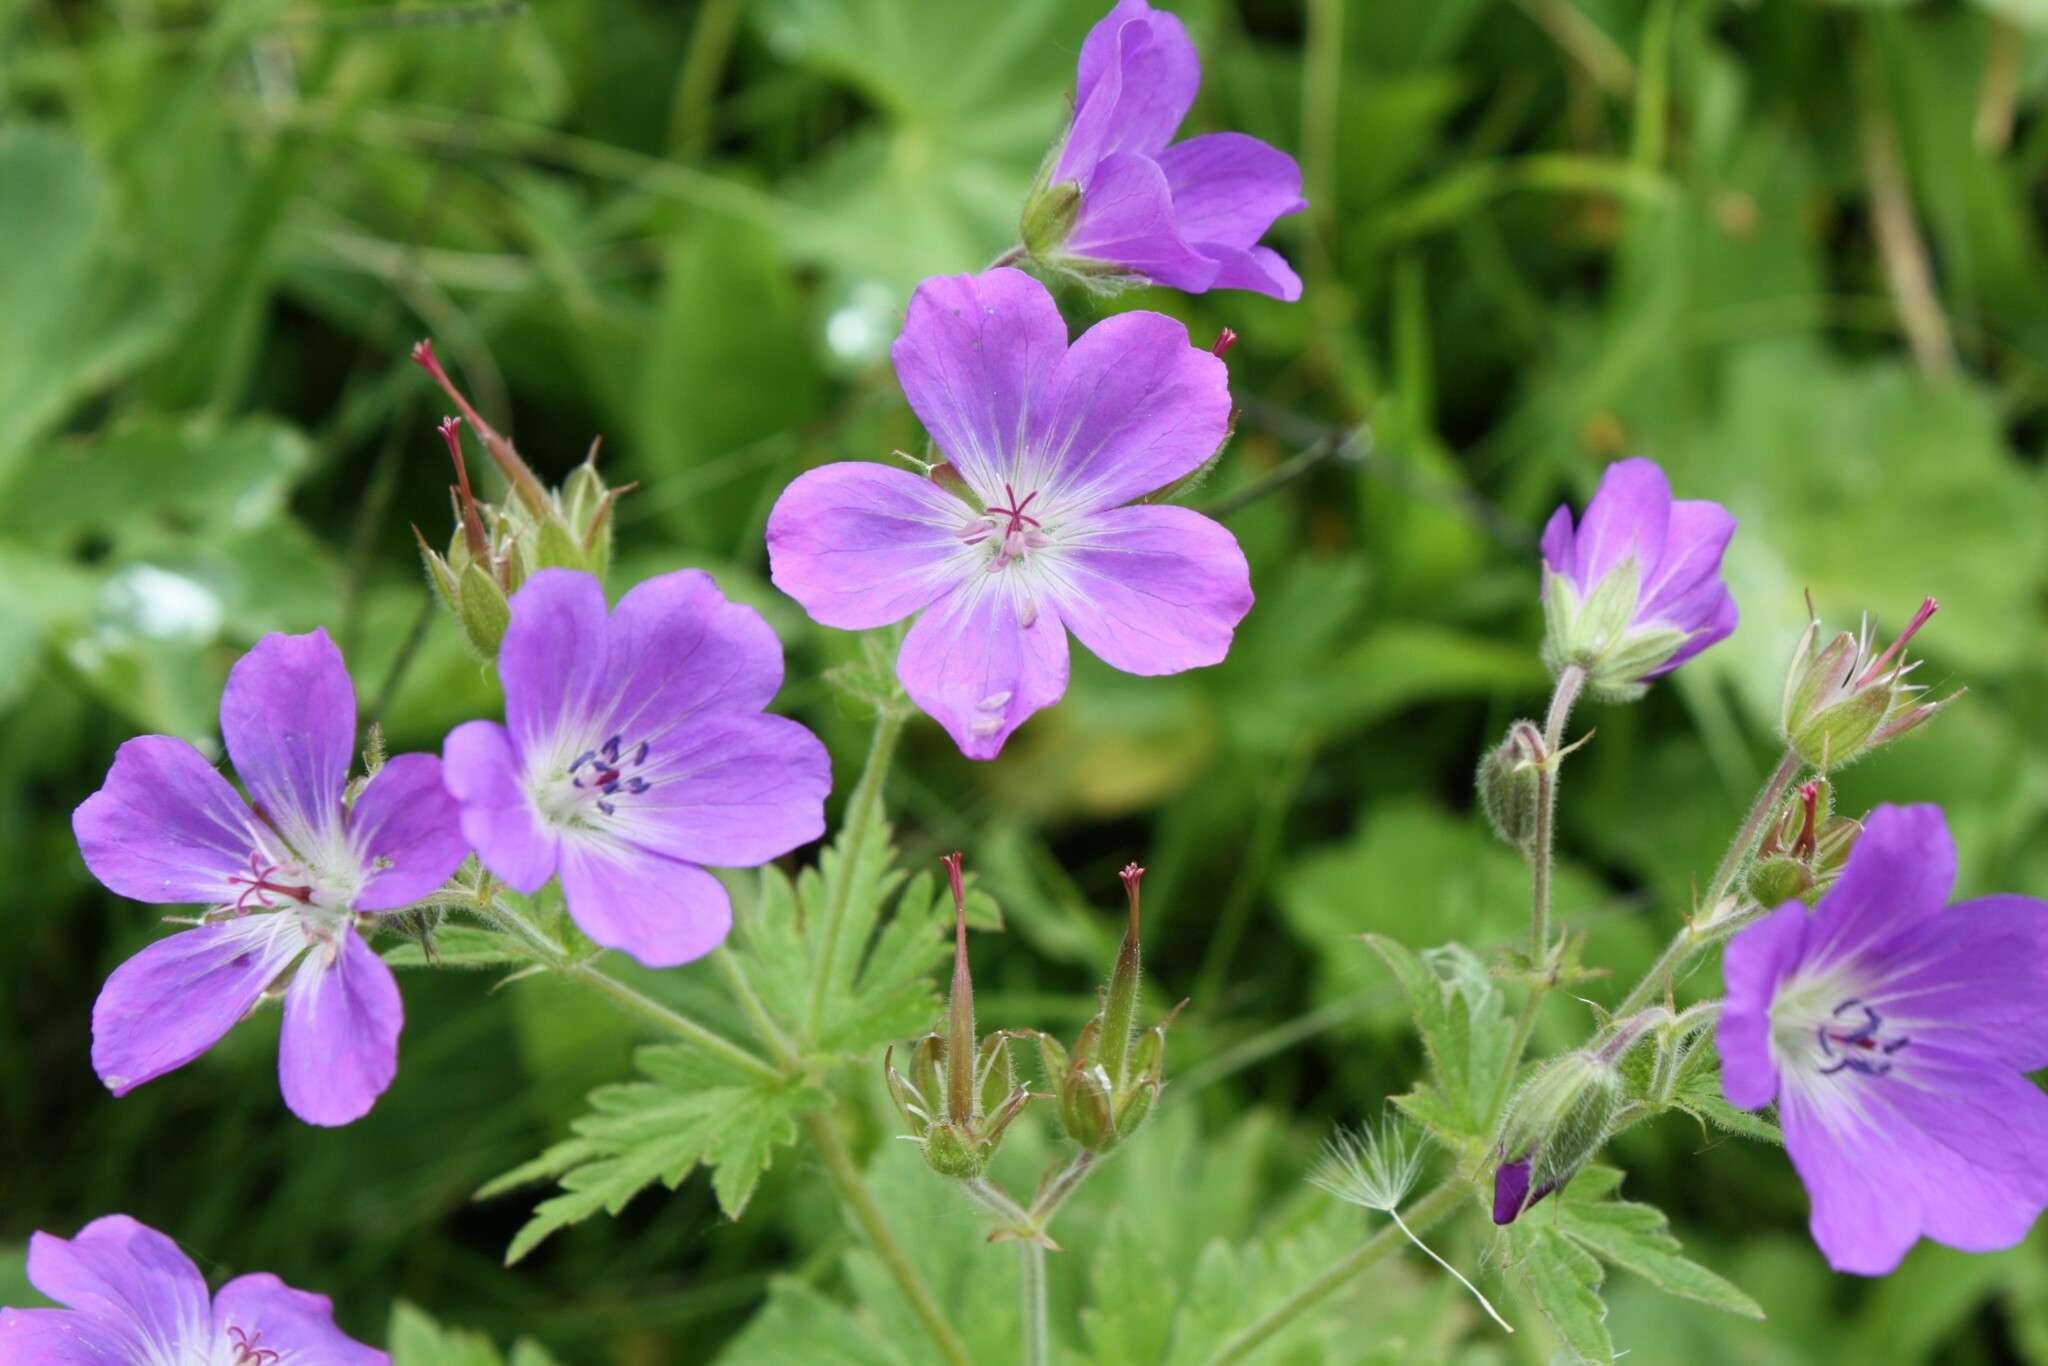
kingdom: Plantae
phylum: Tracheophyta
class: Magnoliopsida
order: Geraniales
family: Geraniaceae
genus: Geranium
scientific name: Geranium sylvaticum
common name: Wood crane's-bill
